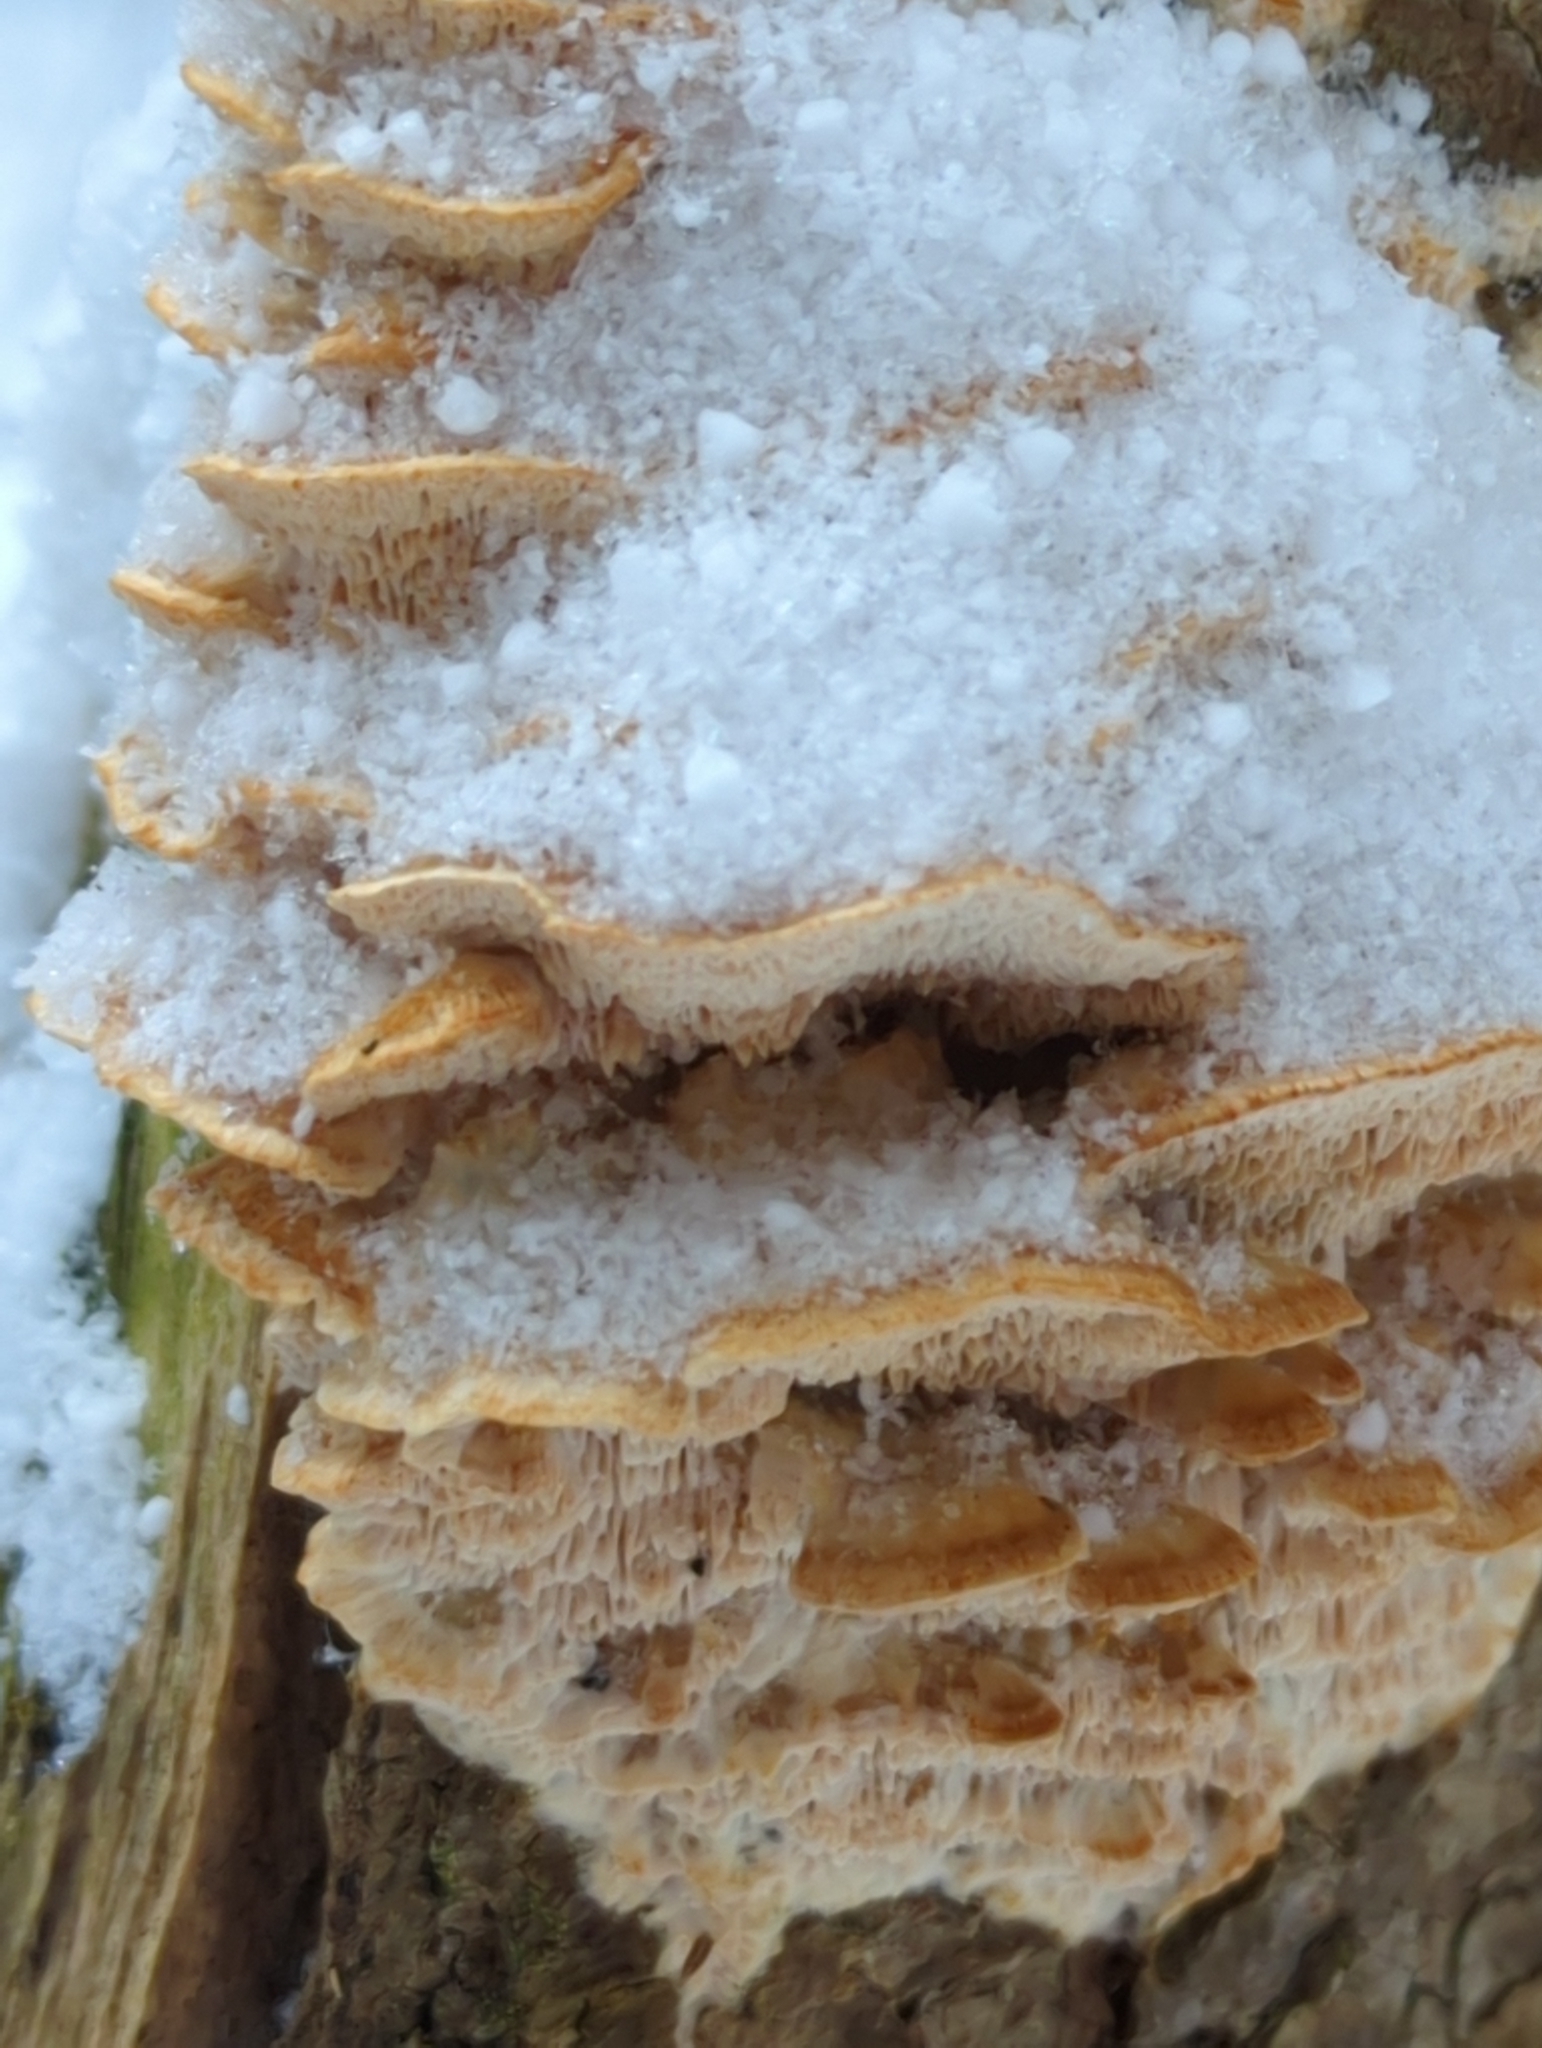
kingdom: Fungi
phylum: Basidiomycota
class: Agaricomycetes
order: Polyporales
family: Irpicaceae
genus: Trametopsis
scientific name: Trametopsis cervina
